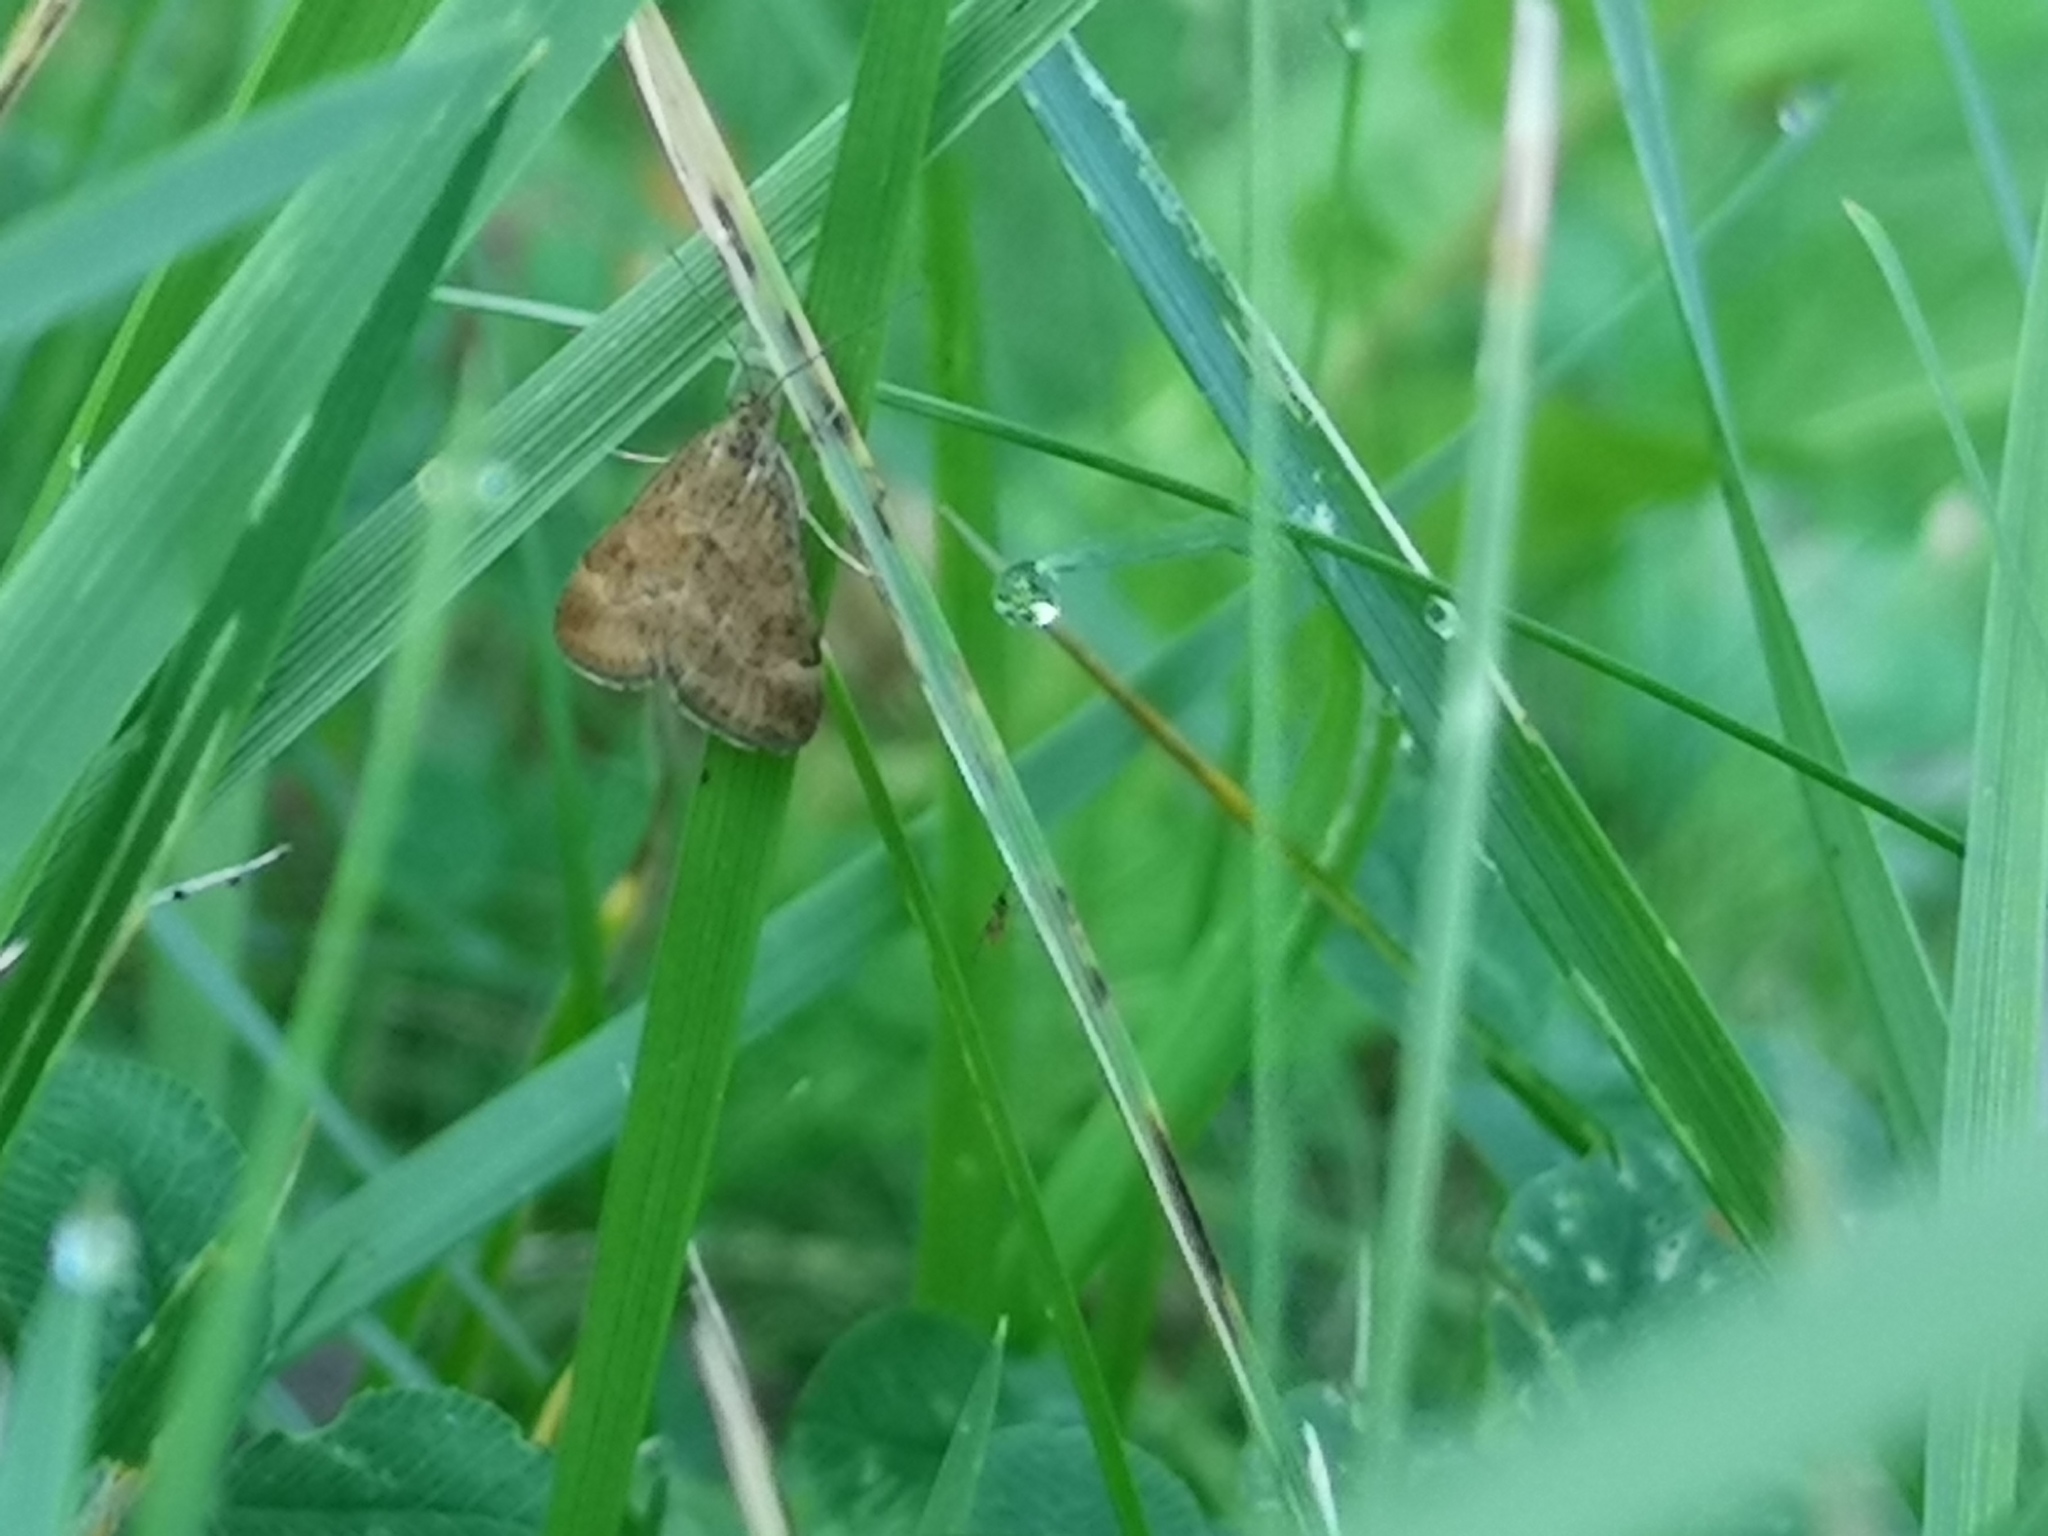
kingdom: Animalia
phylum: Arthropoda
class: Insecta
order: Lepidoptera
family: Crambidae
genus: Pyrausta
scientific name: Pyrausta despicata
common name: Straw-barred pearl
